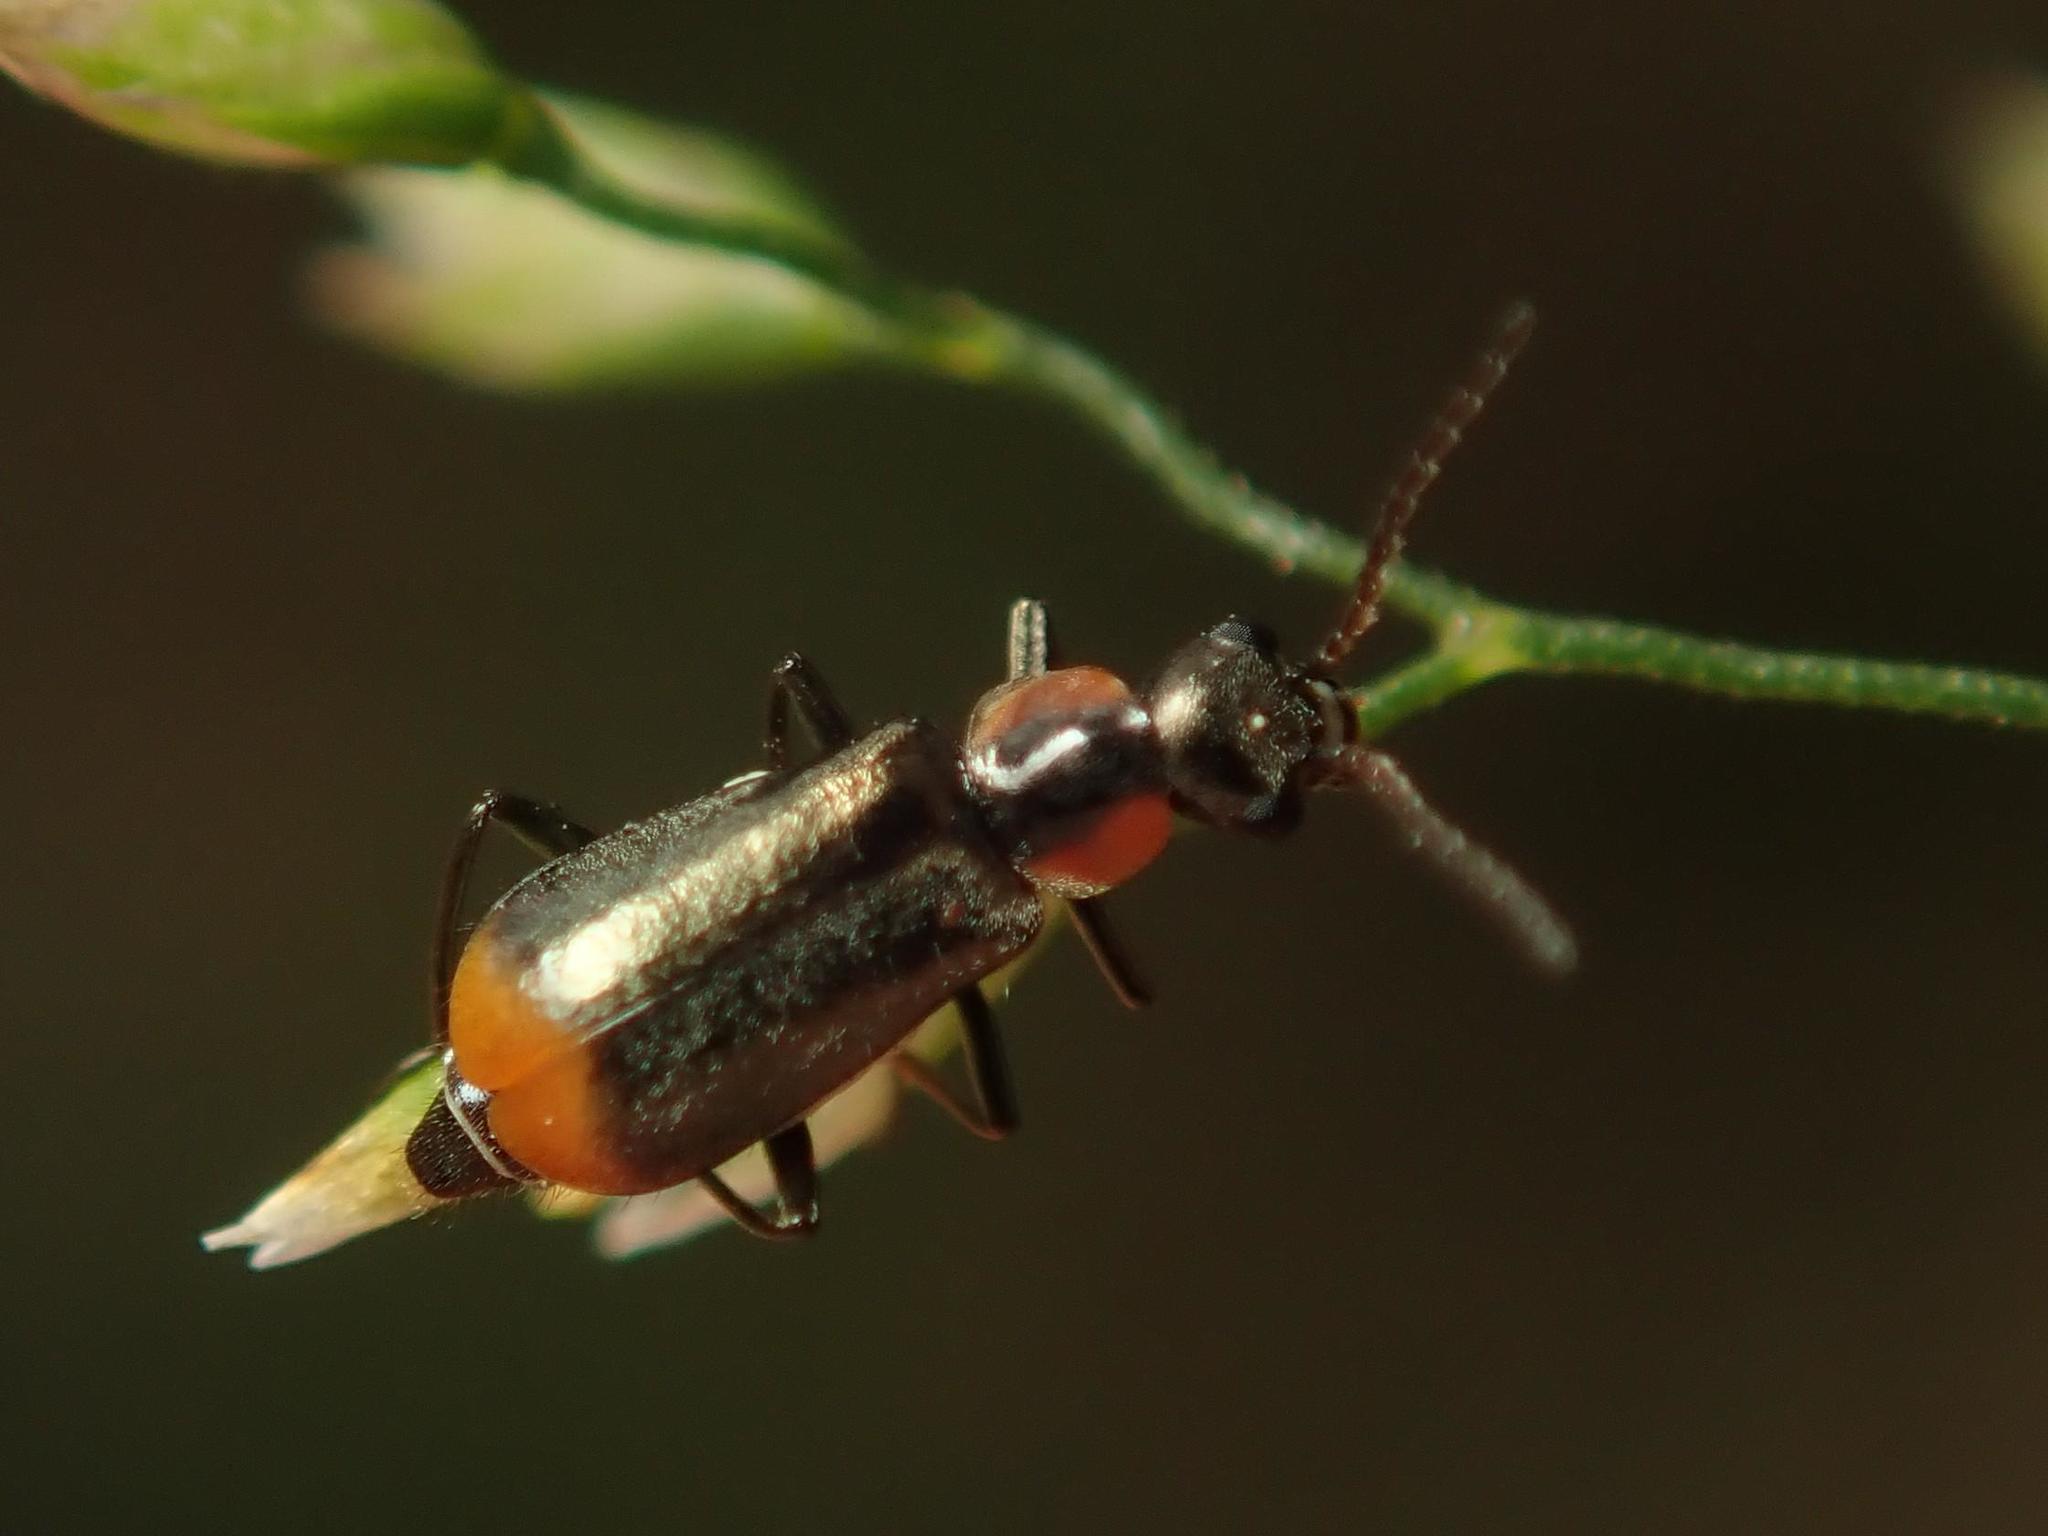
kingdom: Animalia
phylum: Arthropoda
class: Insecta
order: Coleoptera
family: Melyridae
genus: Axinotarsus
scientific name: Axinotarsus pulicarius
